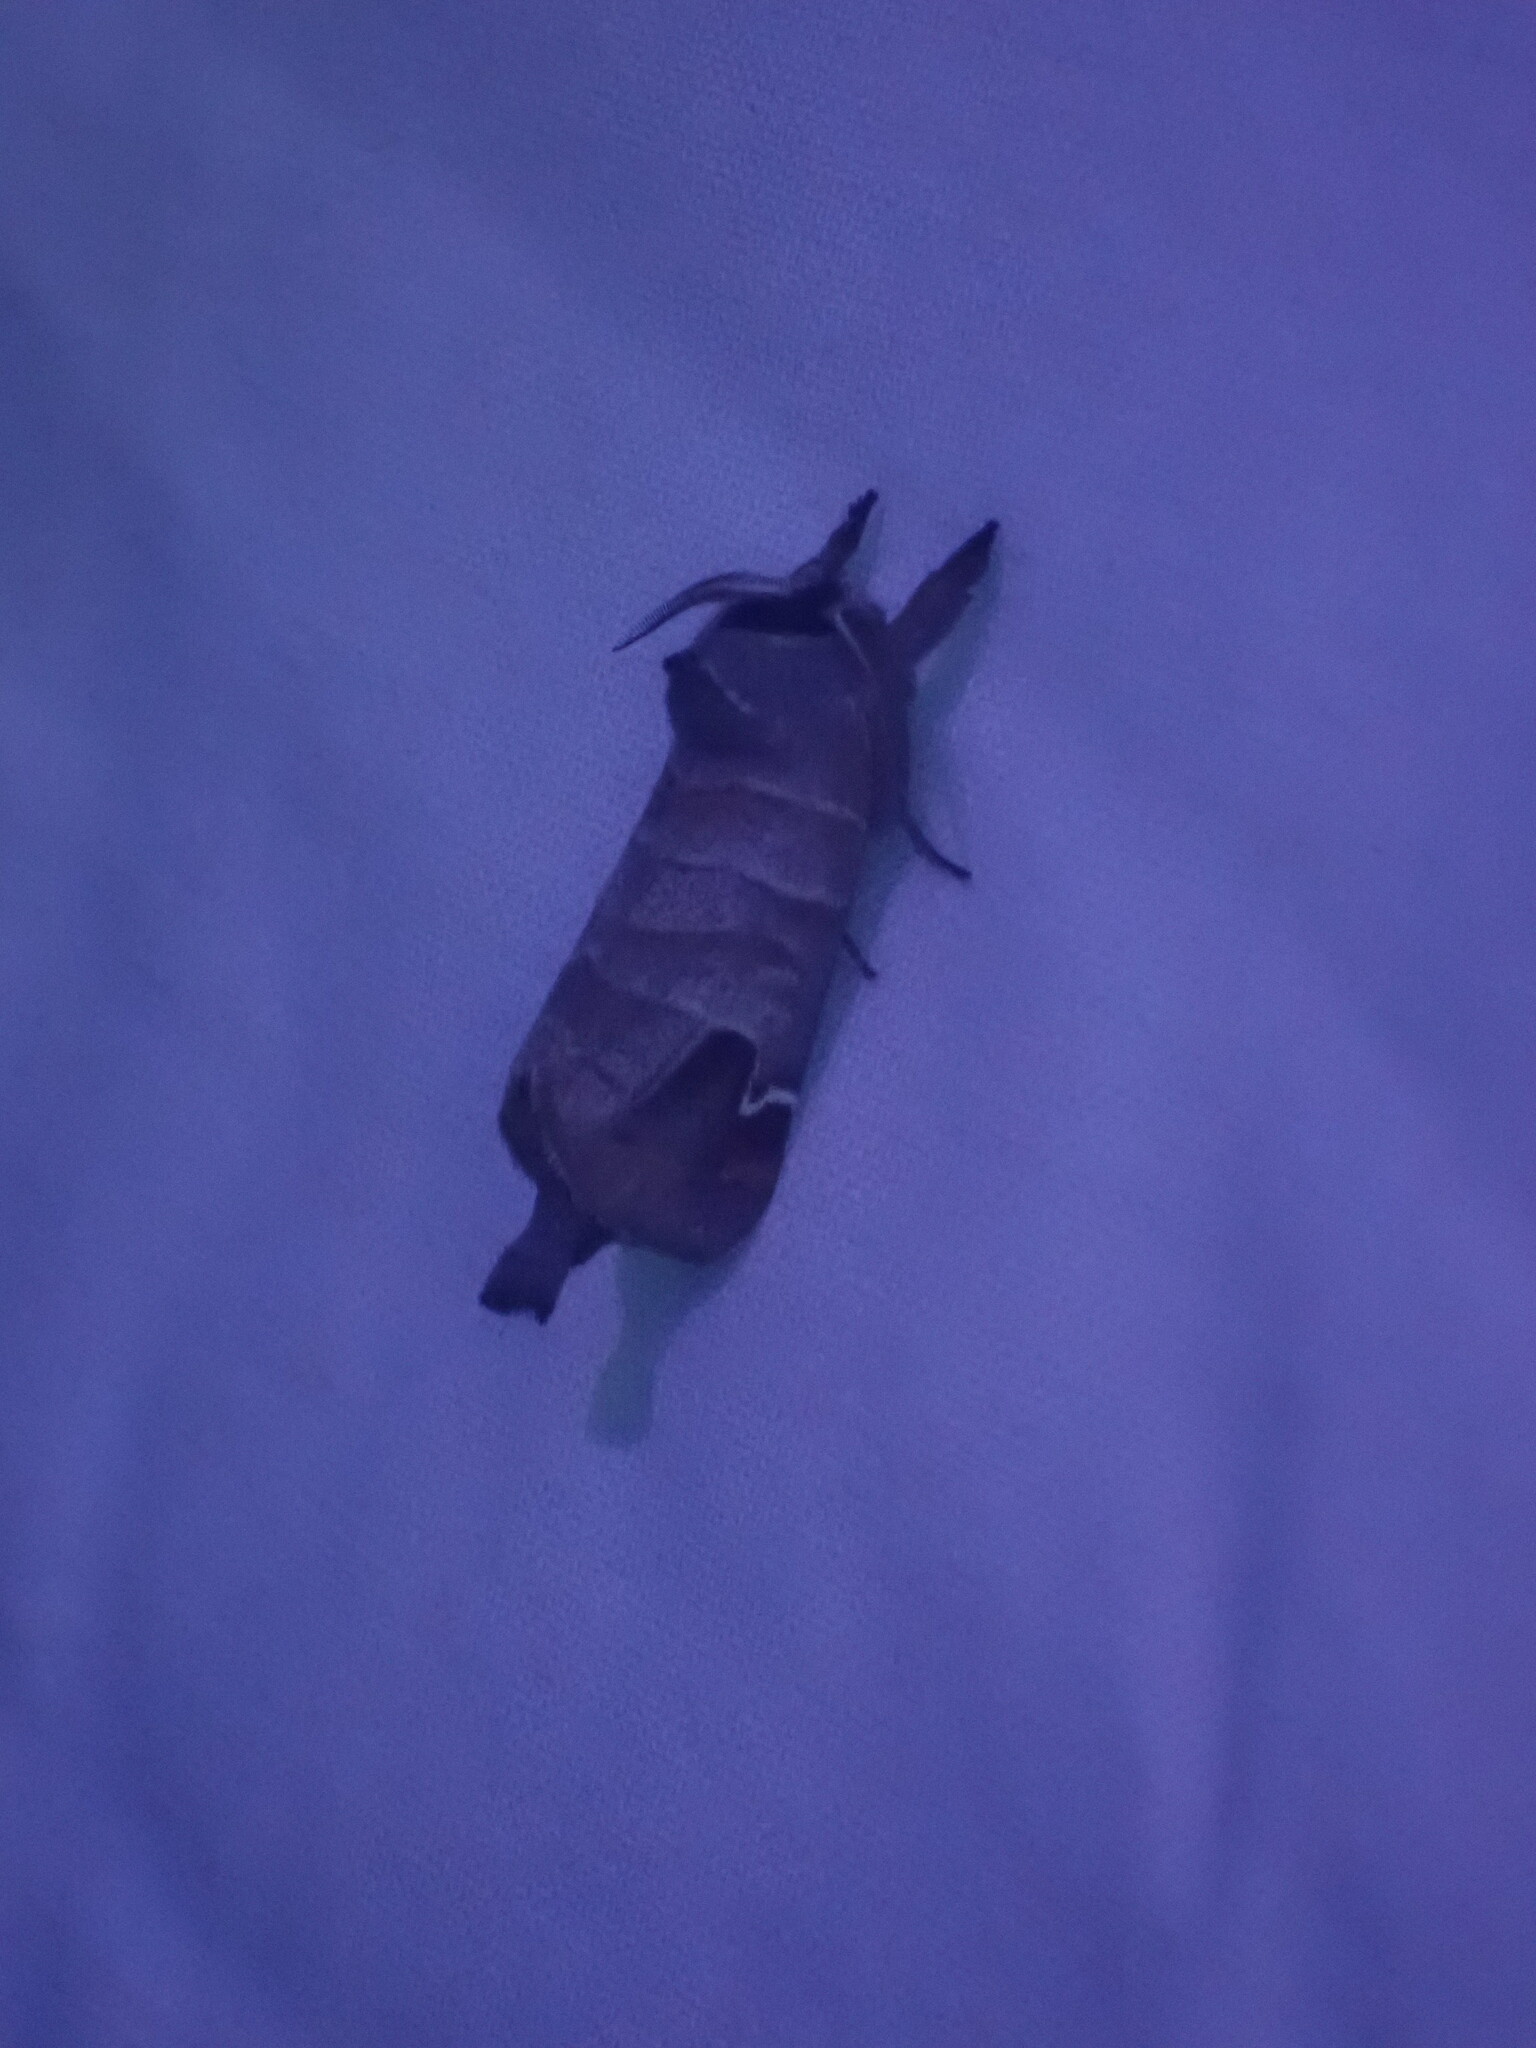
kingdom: Animalia
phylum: Arthropoda
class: Insecta
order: Lepidoptera
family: Notodontidae
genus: Clostera
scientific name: Clostera albosigma
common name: Sigmoid prominent
